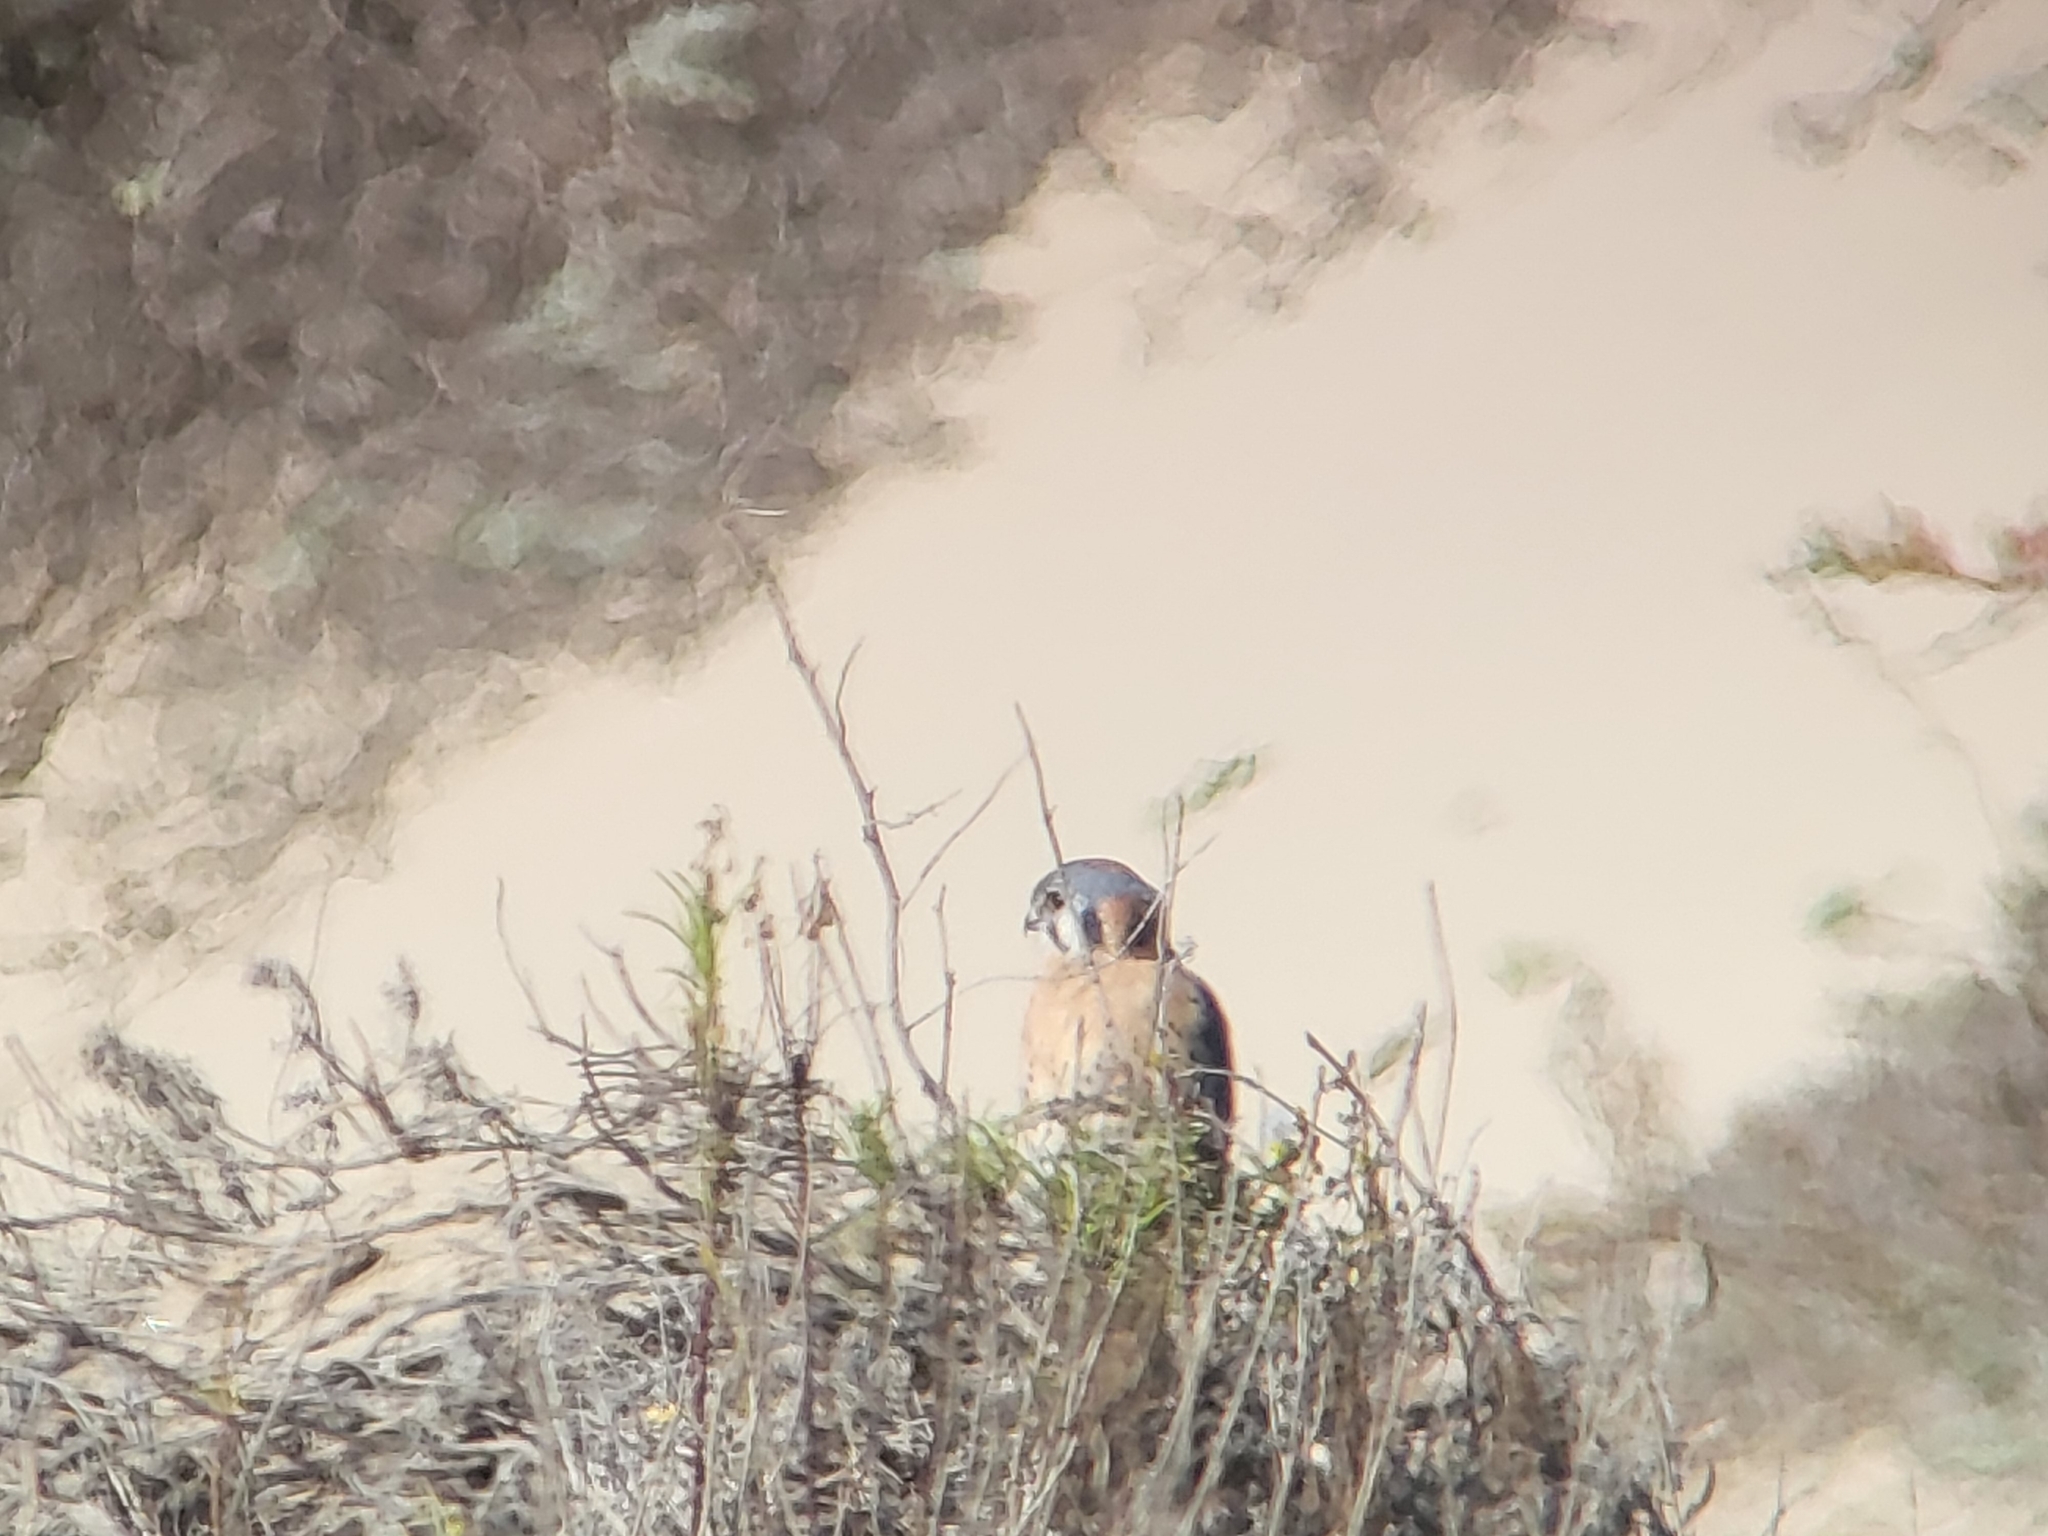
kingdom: Animalia
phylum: Chordata
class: Aves
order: Falconiformes
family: Falconidae
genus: Falco
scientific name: Falco sparverius
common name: American kestrel
